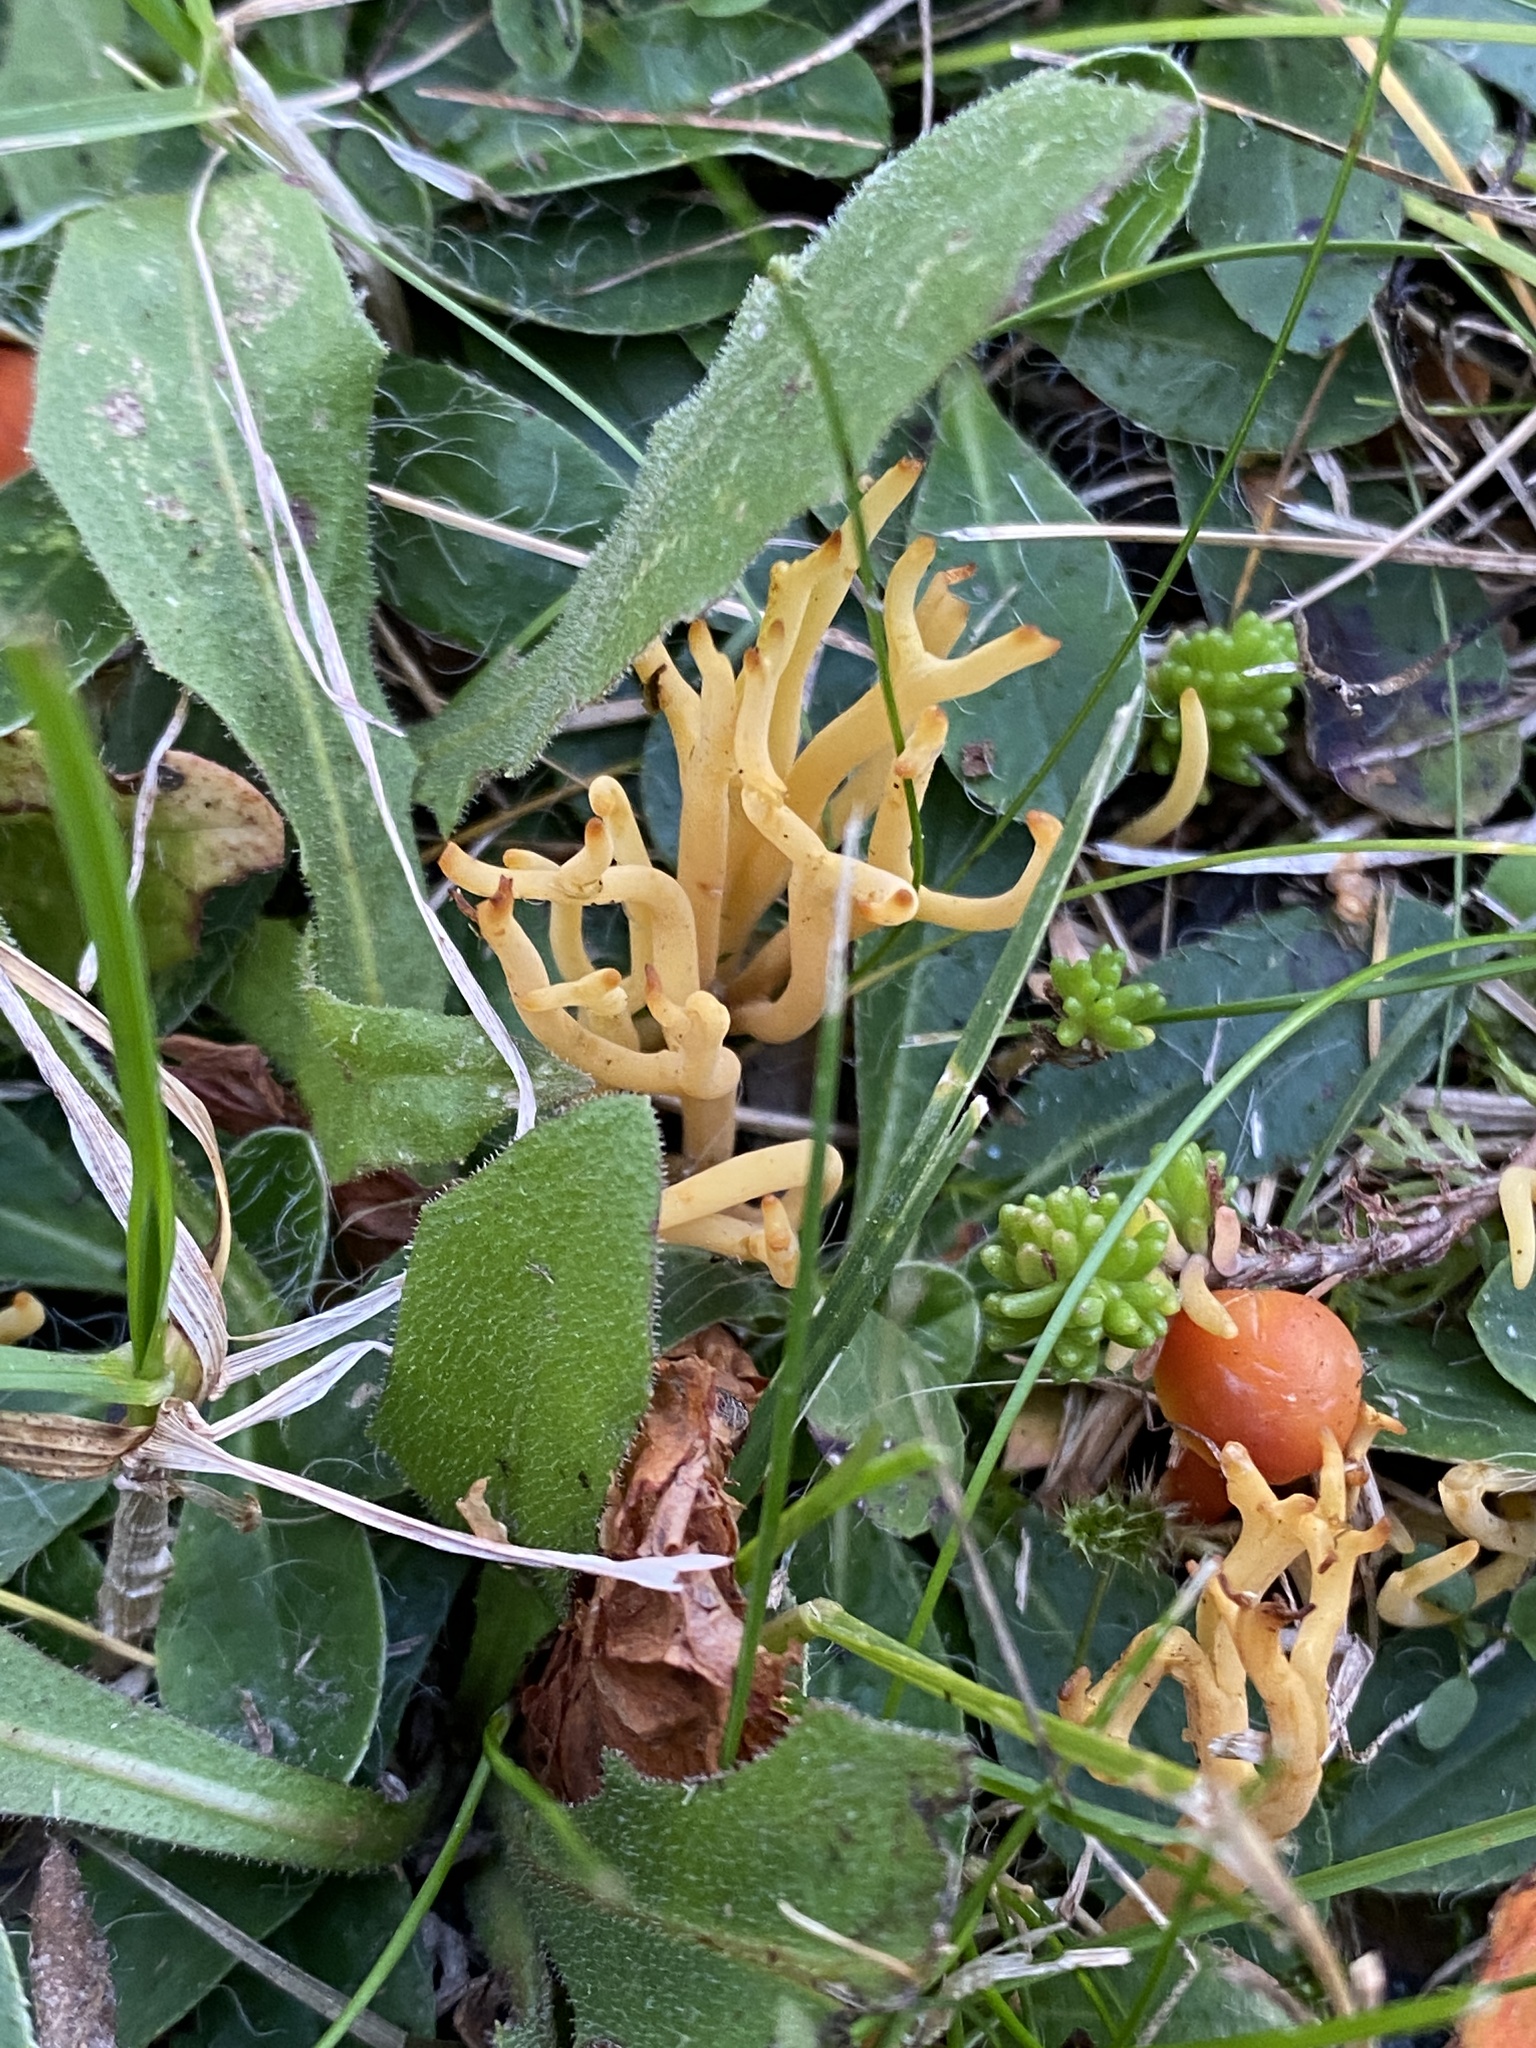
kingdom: Fungi
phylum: Basidiomycota
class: Agaricomycetes
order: Agaricales
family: Clavariaceae
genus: Clavulinopsis
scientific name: Clavulinopsis corniculata
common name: Meadow coral
